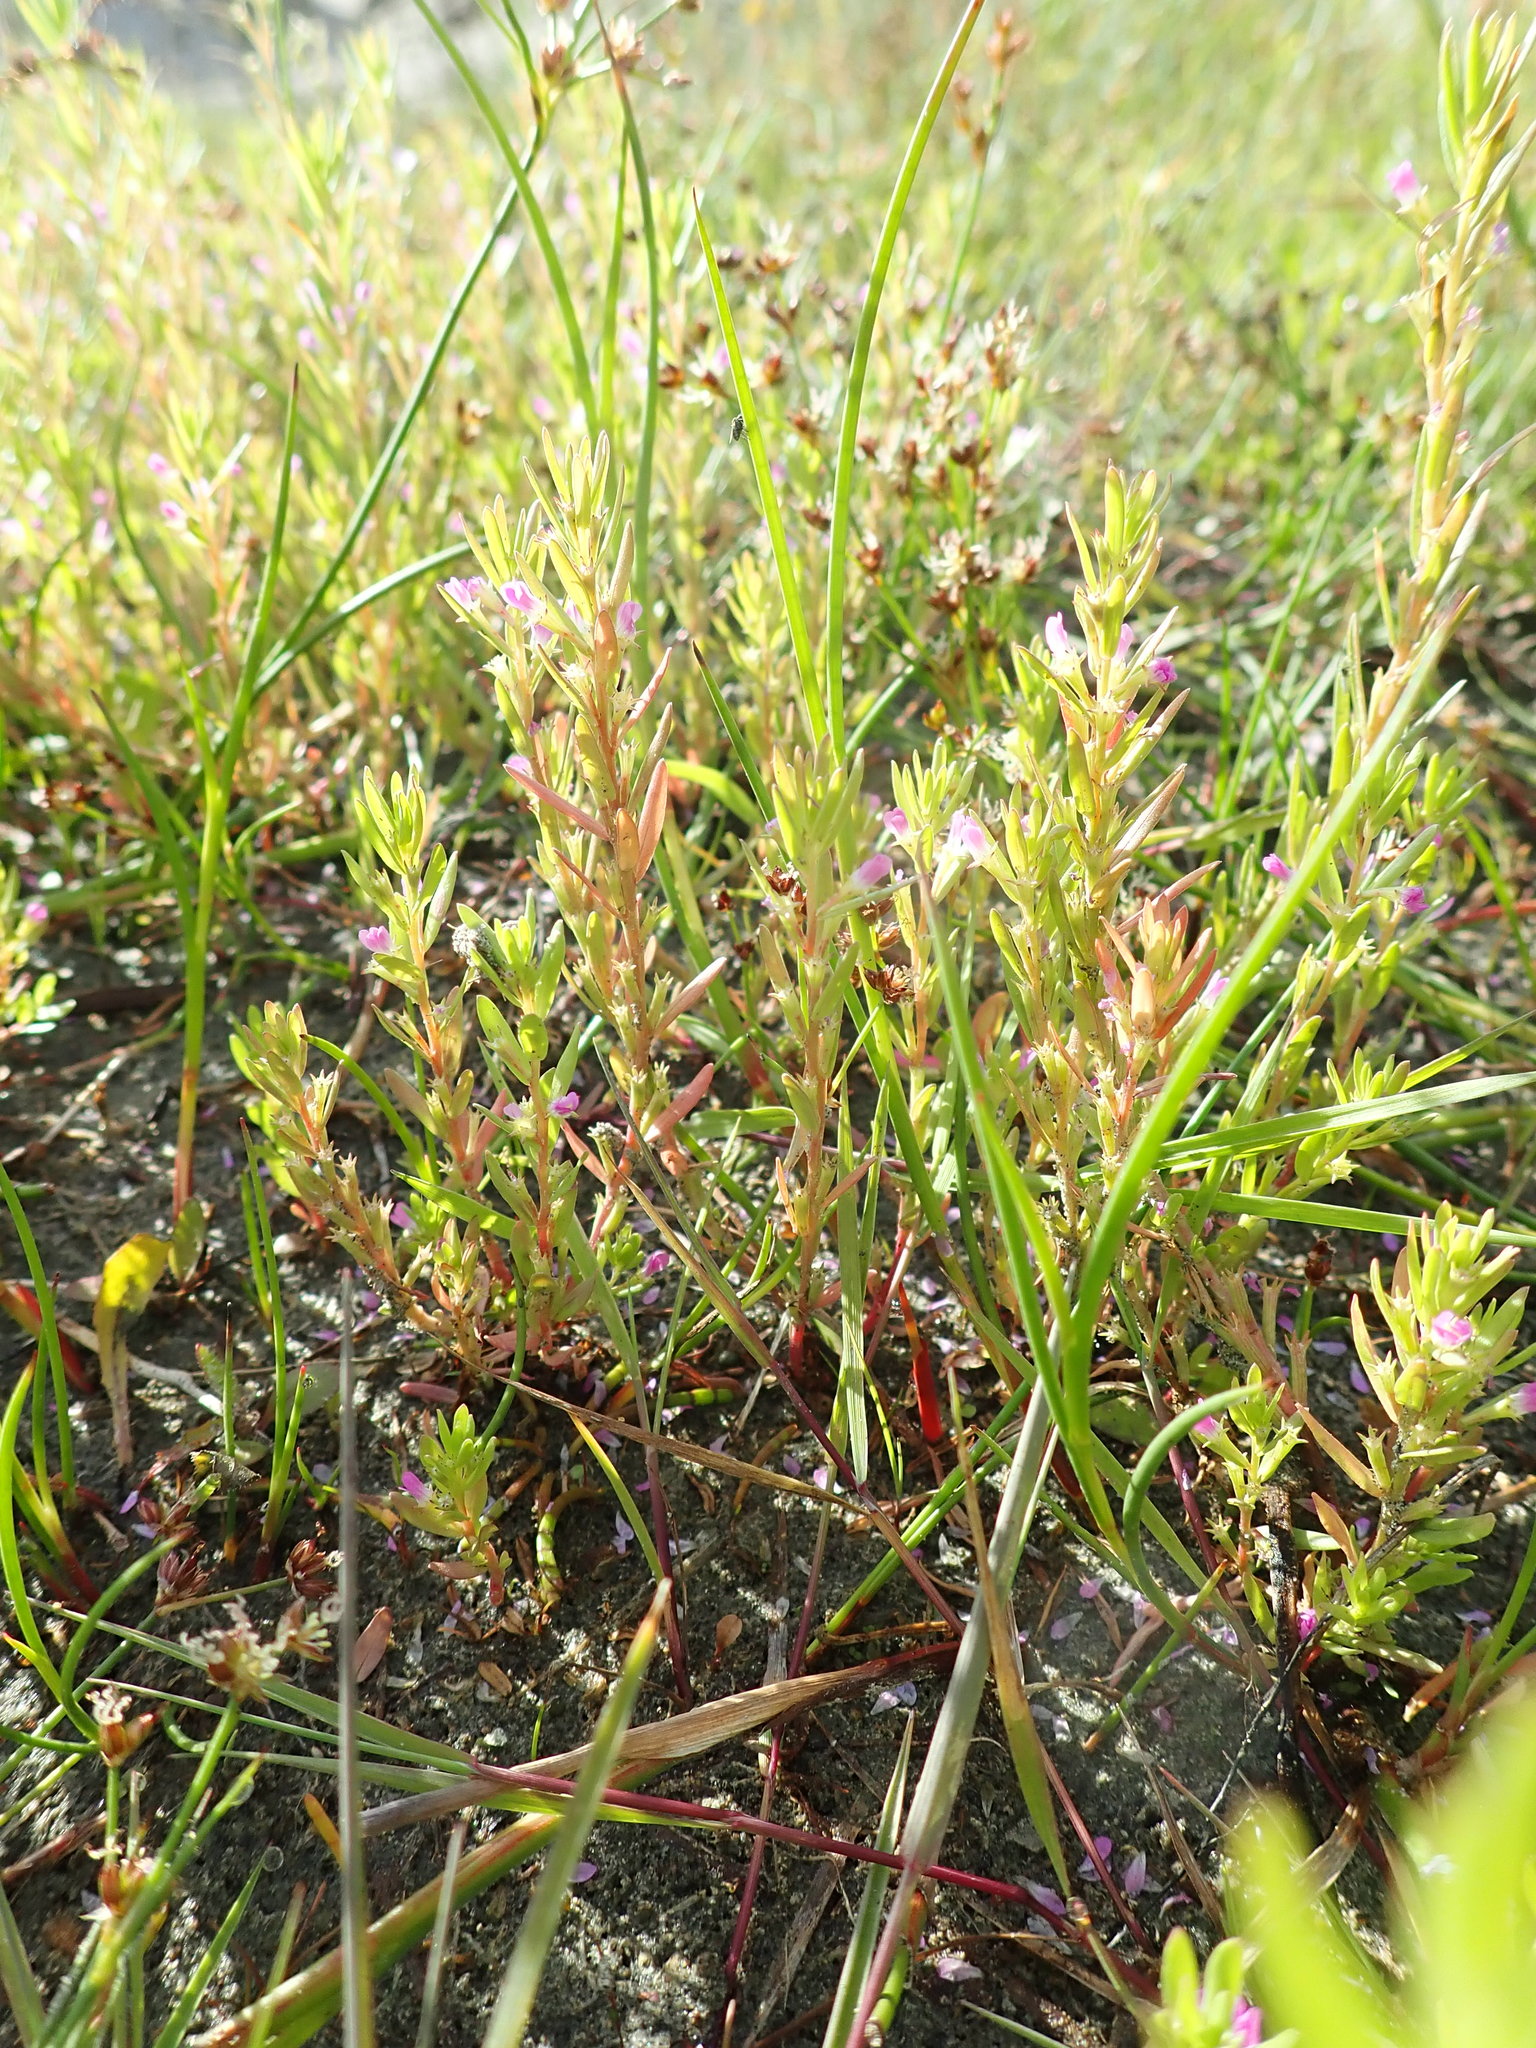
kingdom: Plantae
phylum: Tracheophyta
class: Magnoliopsida
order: Myrtales
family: Lythraceae
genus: Lythrum
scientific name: Lythrum hyssopifolia
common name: Grass-poly
